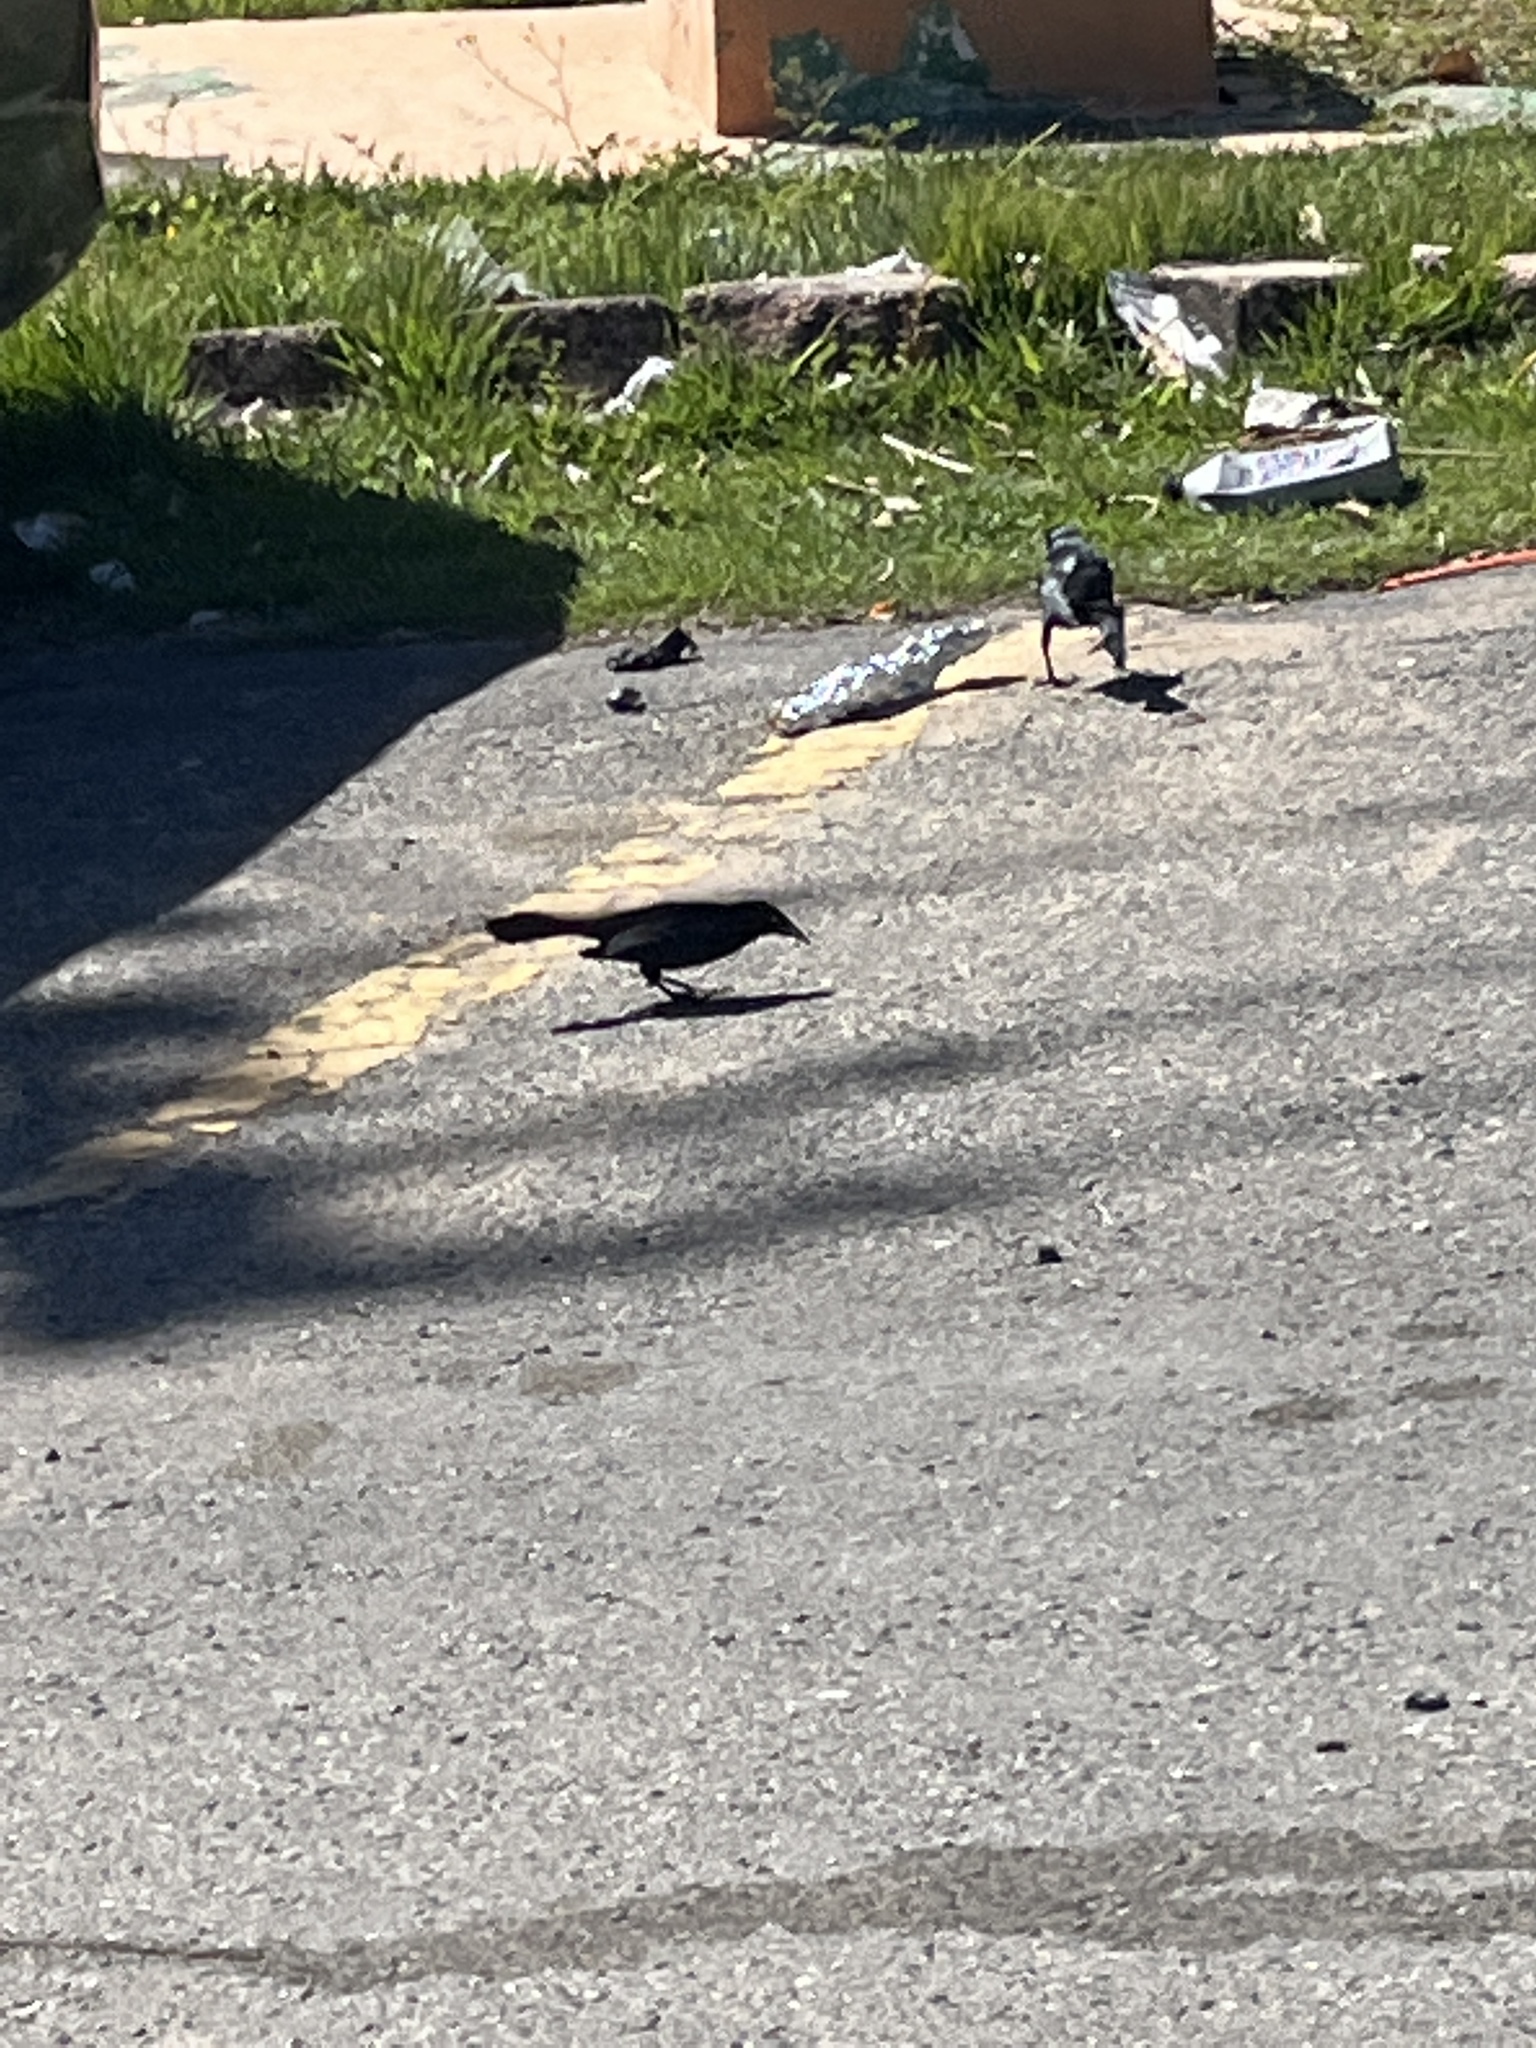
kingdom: Animalia
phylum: Chordata
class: Aves
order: Passeriformes
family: Icteridae
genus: Quiscalus
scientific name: Quiscalus niger
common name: Greater antillean grackle
